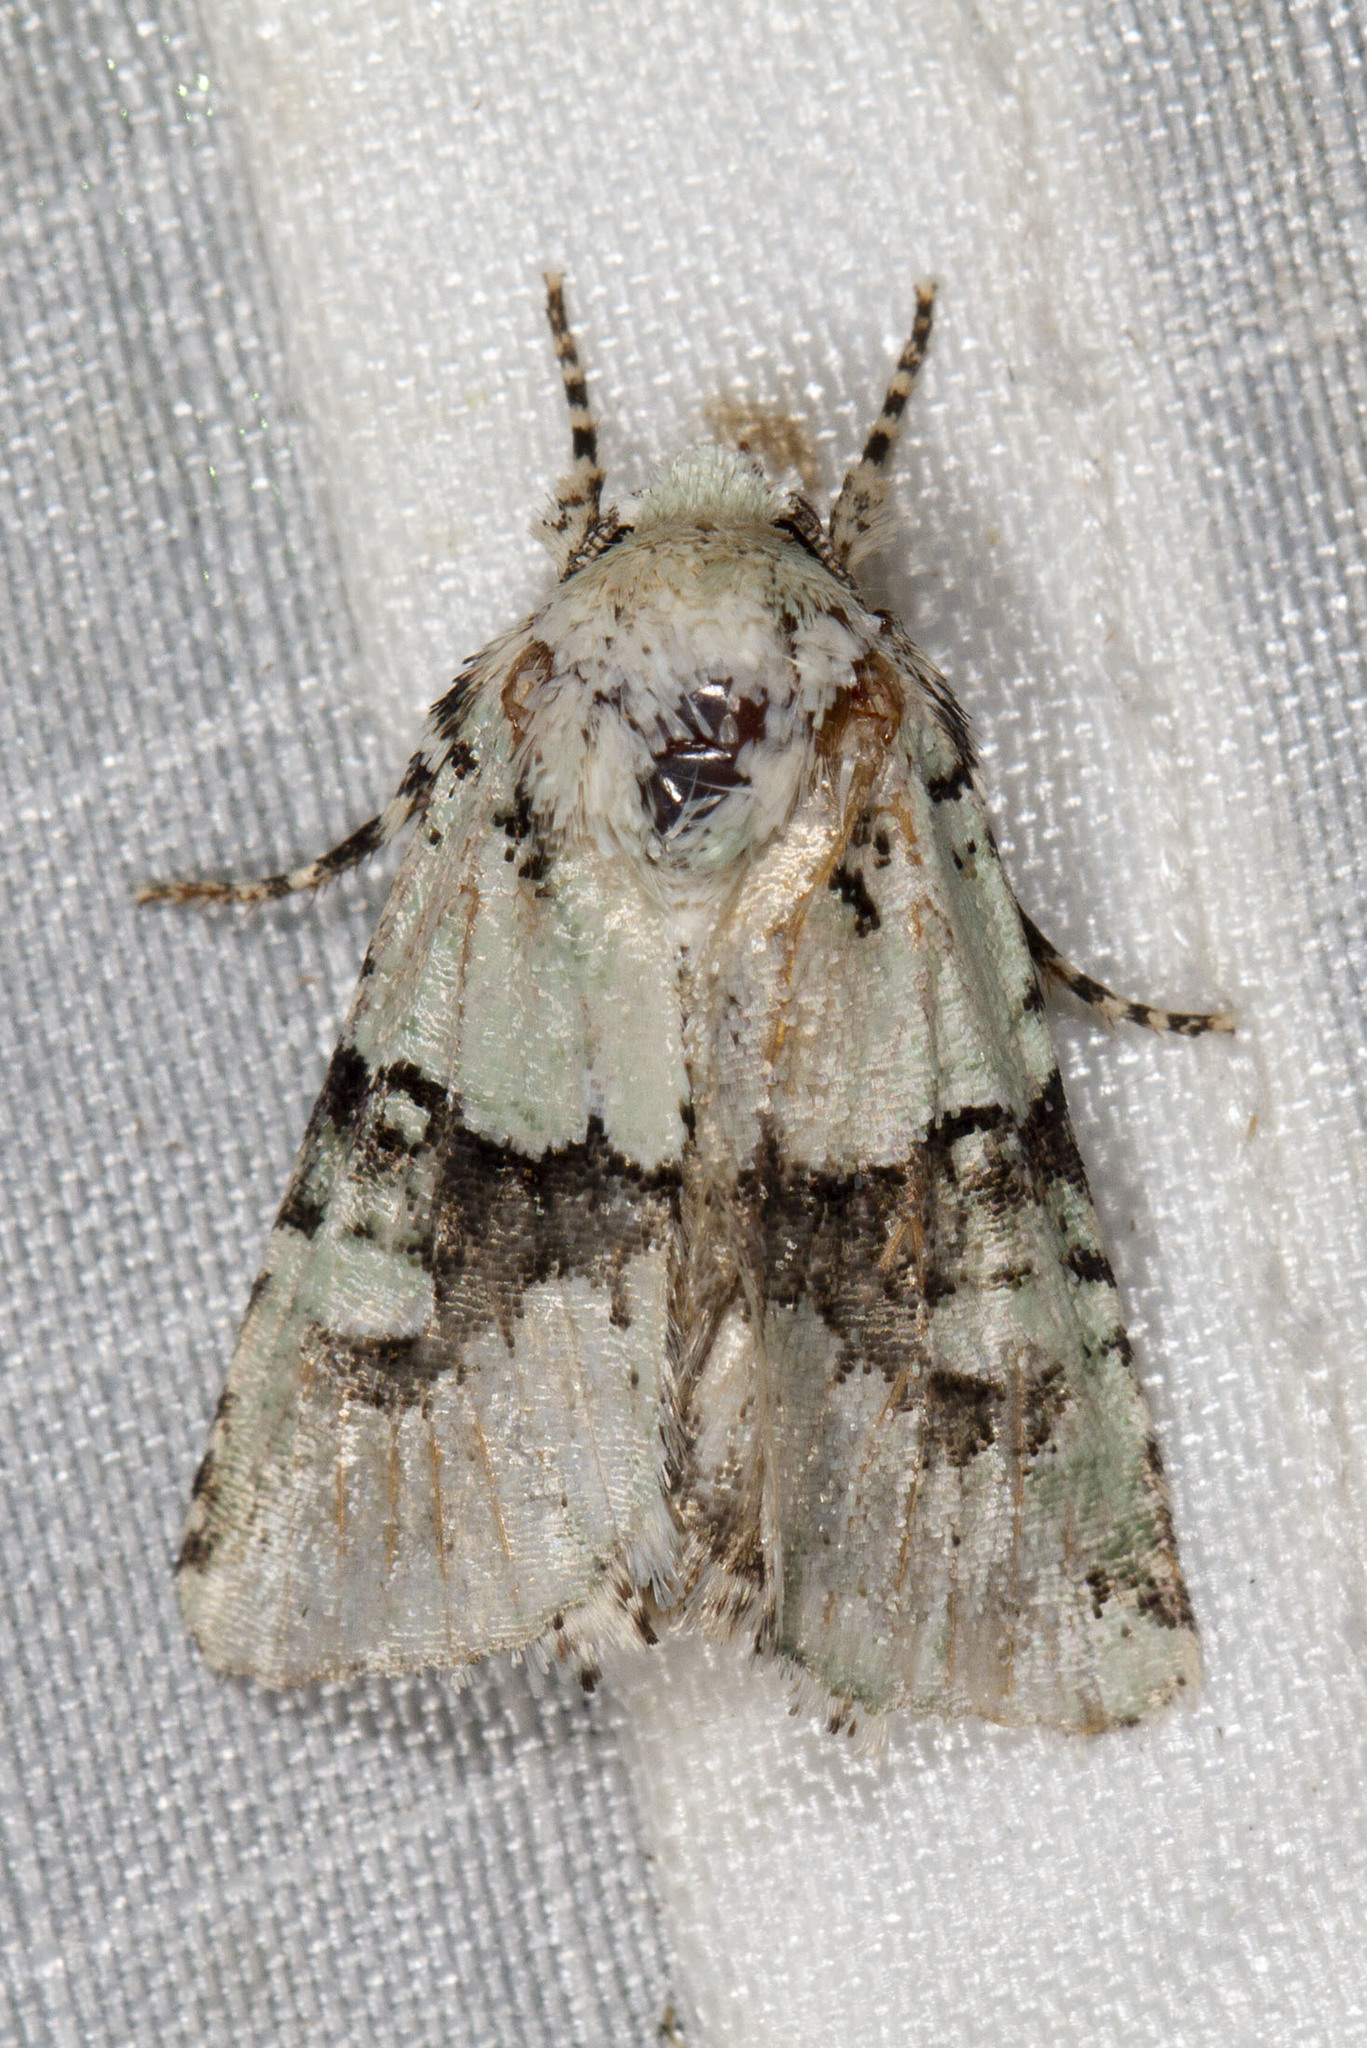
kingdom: Animalia
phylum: Arthropoda
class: Insecta
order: Lepidoptera
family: Noctuidae
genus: Lacinipolia
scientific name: Lacinipolia implicata
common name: Implicit arches
